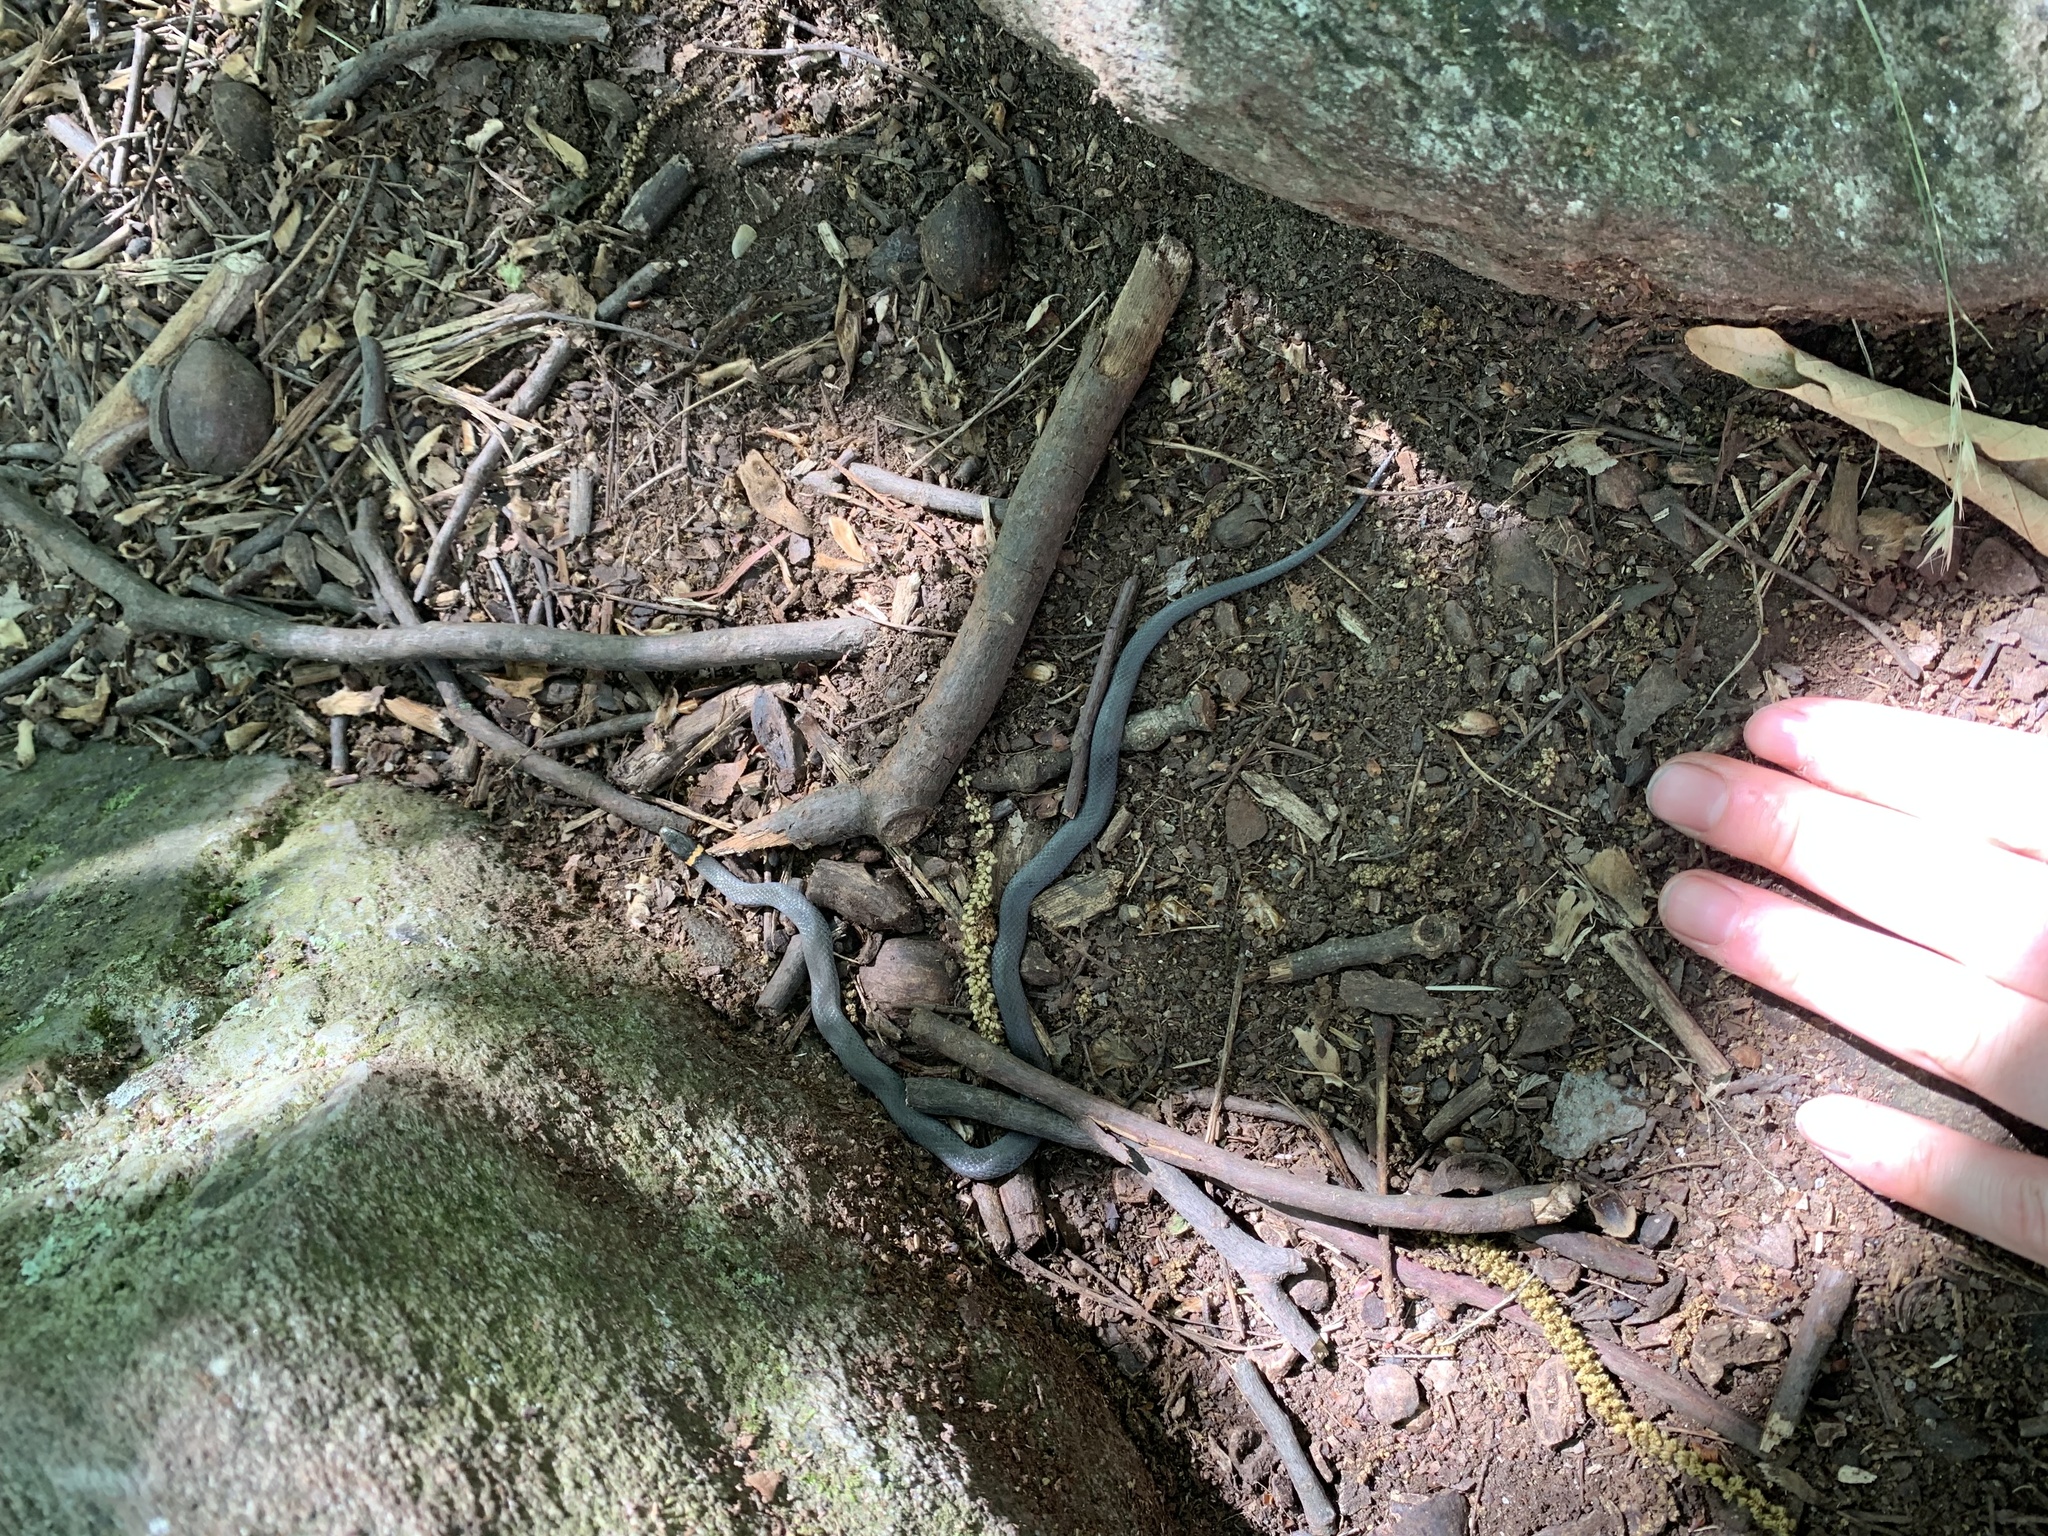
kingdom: Animalia
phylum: Chordata
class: Squamata
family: Colubridae
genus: Diadophis
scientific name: Diadophis punctatus
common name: Ringneck snake
